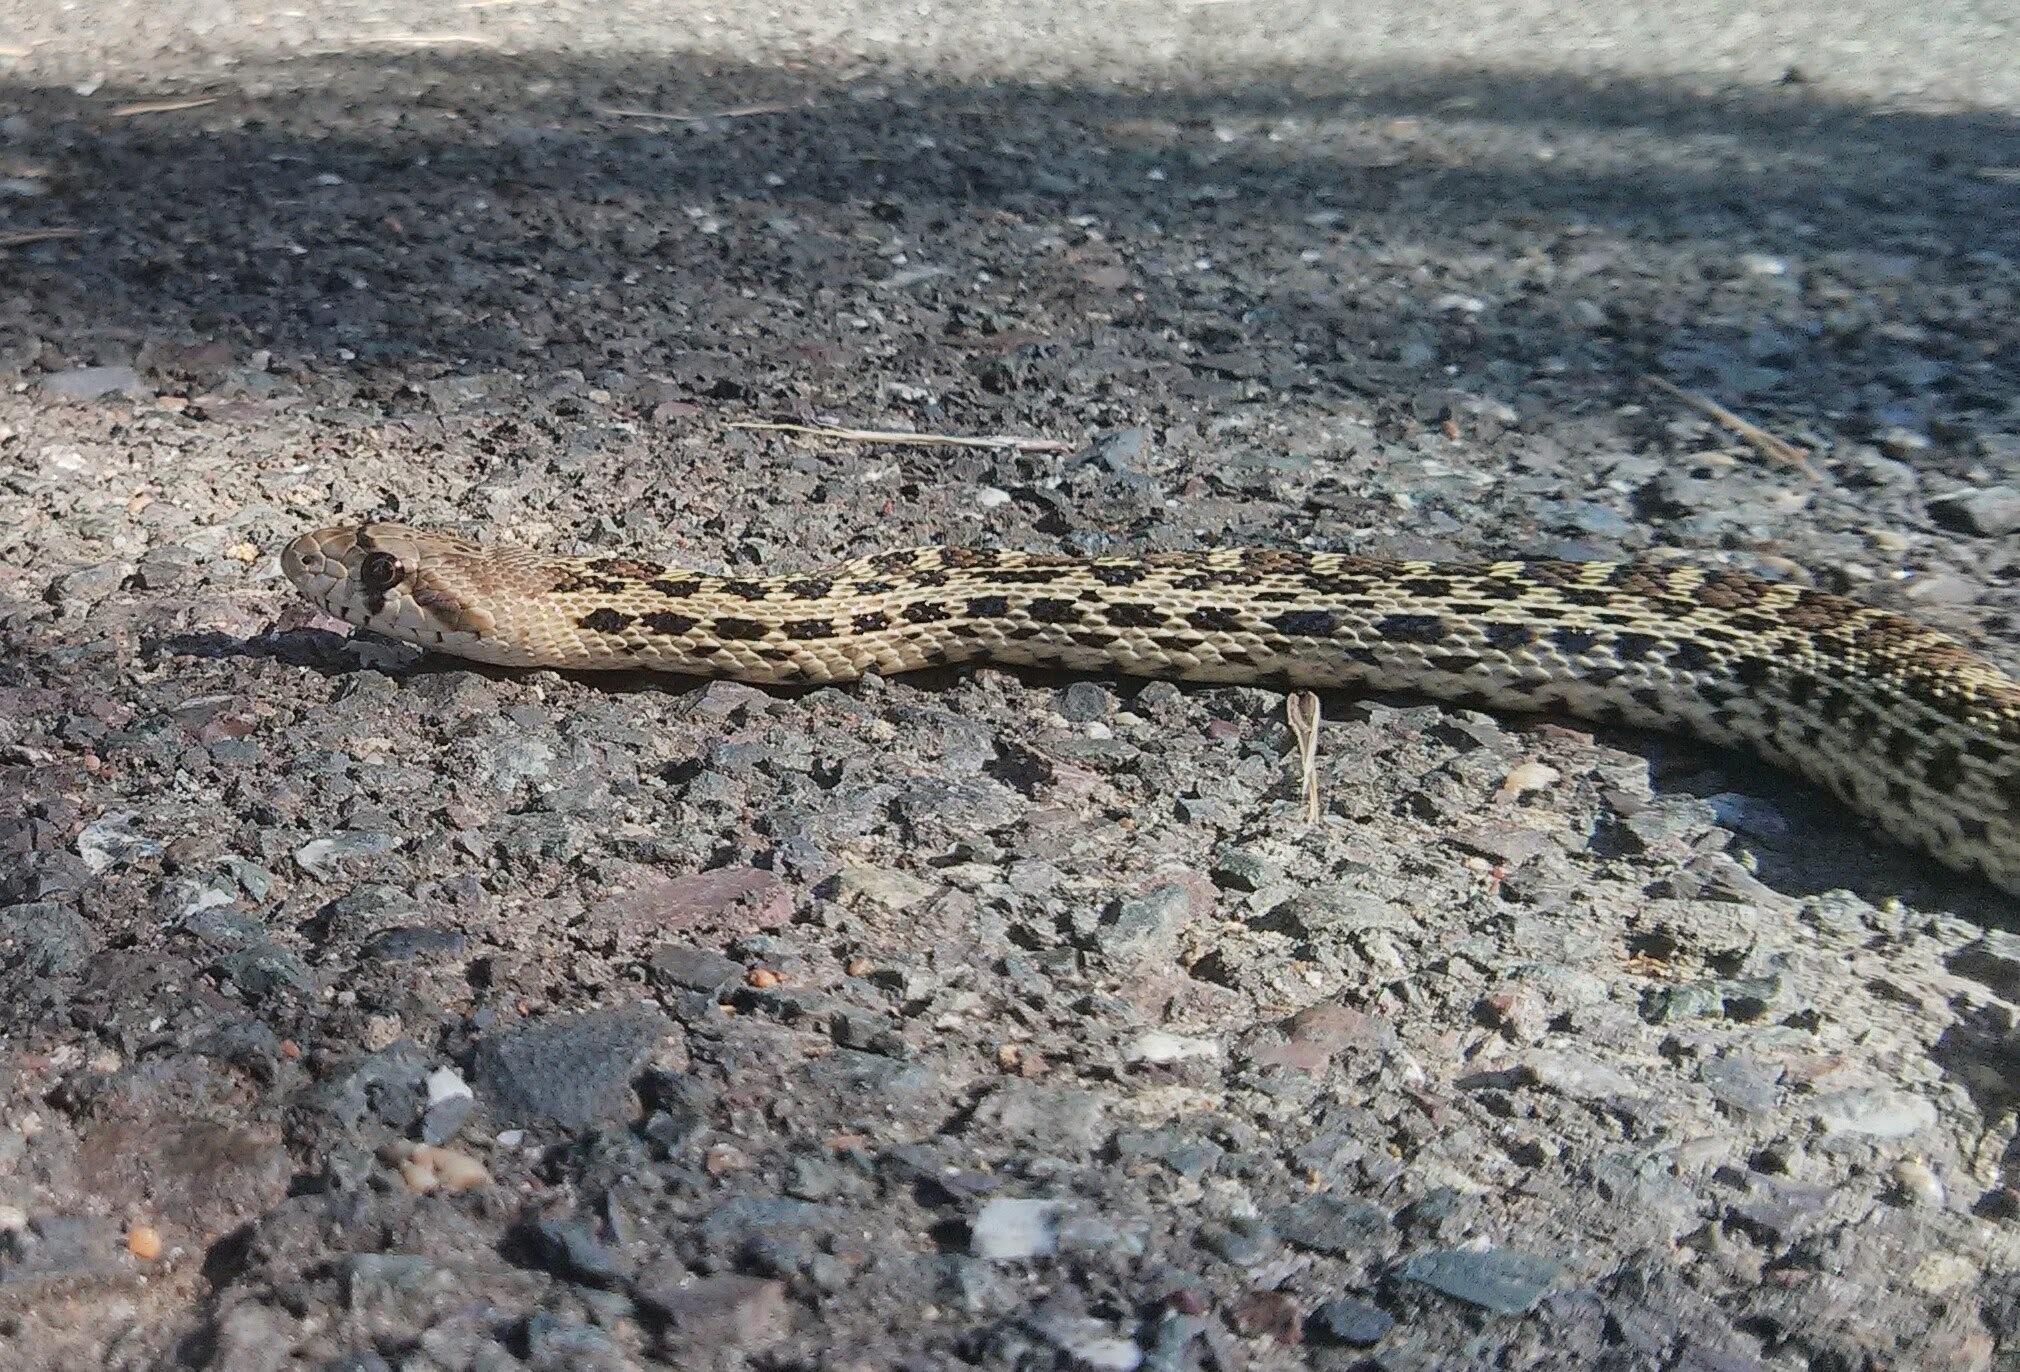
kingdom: Animalia
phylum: Chordata
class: Squamata
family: Colubridae
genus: Pituophis
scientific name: Pituophis catenifer
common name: Gopher snake
